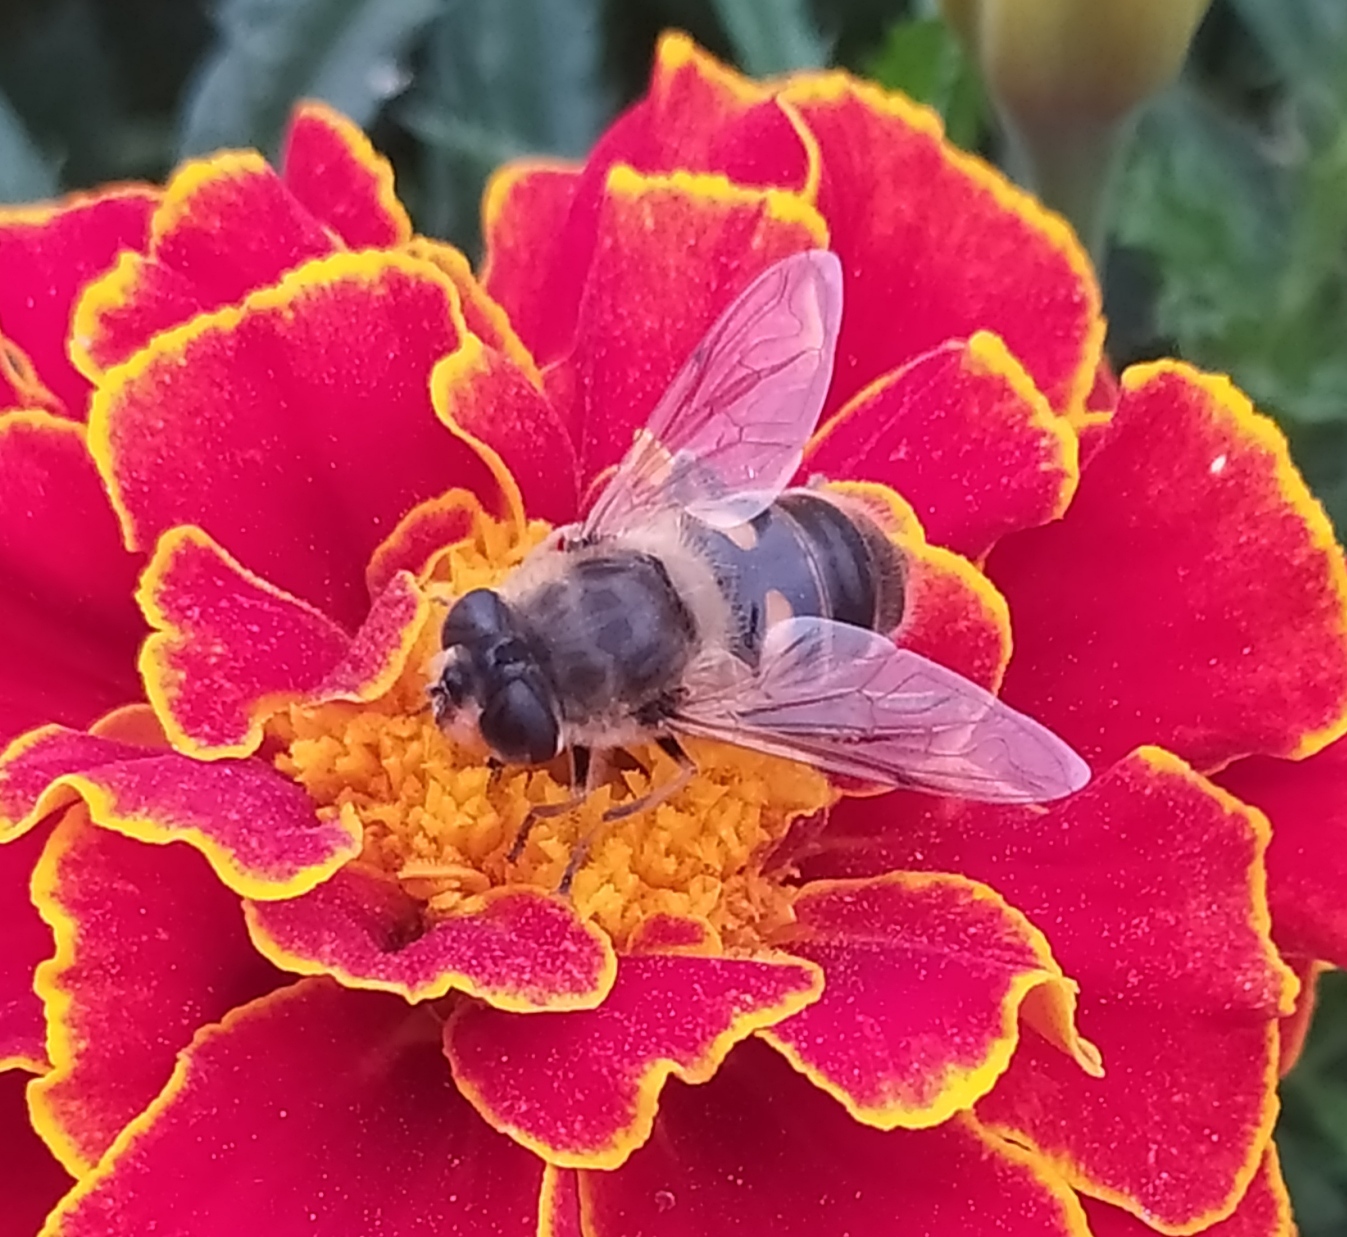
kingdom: Animalia
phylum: Arthropoda
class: Insecta
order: Diptera
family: Syrphidae
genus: Eristalis
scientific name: Eristalis tenax
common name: Drone fly
